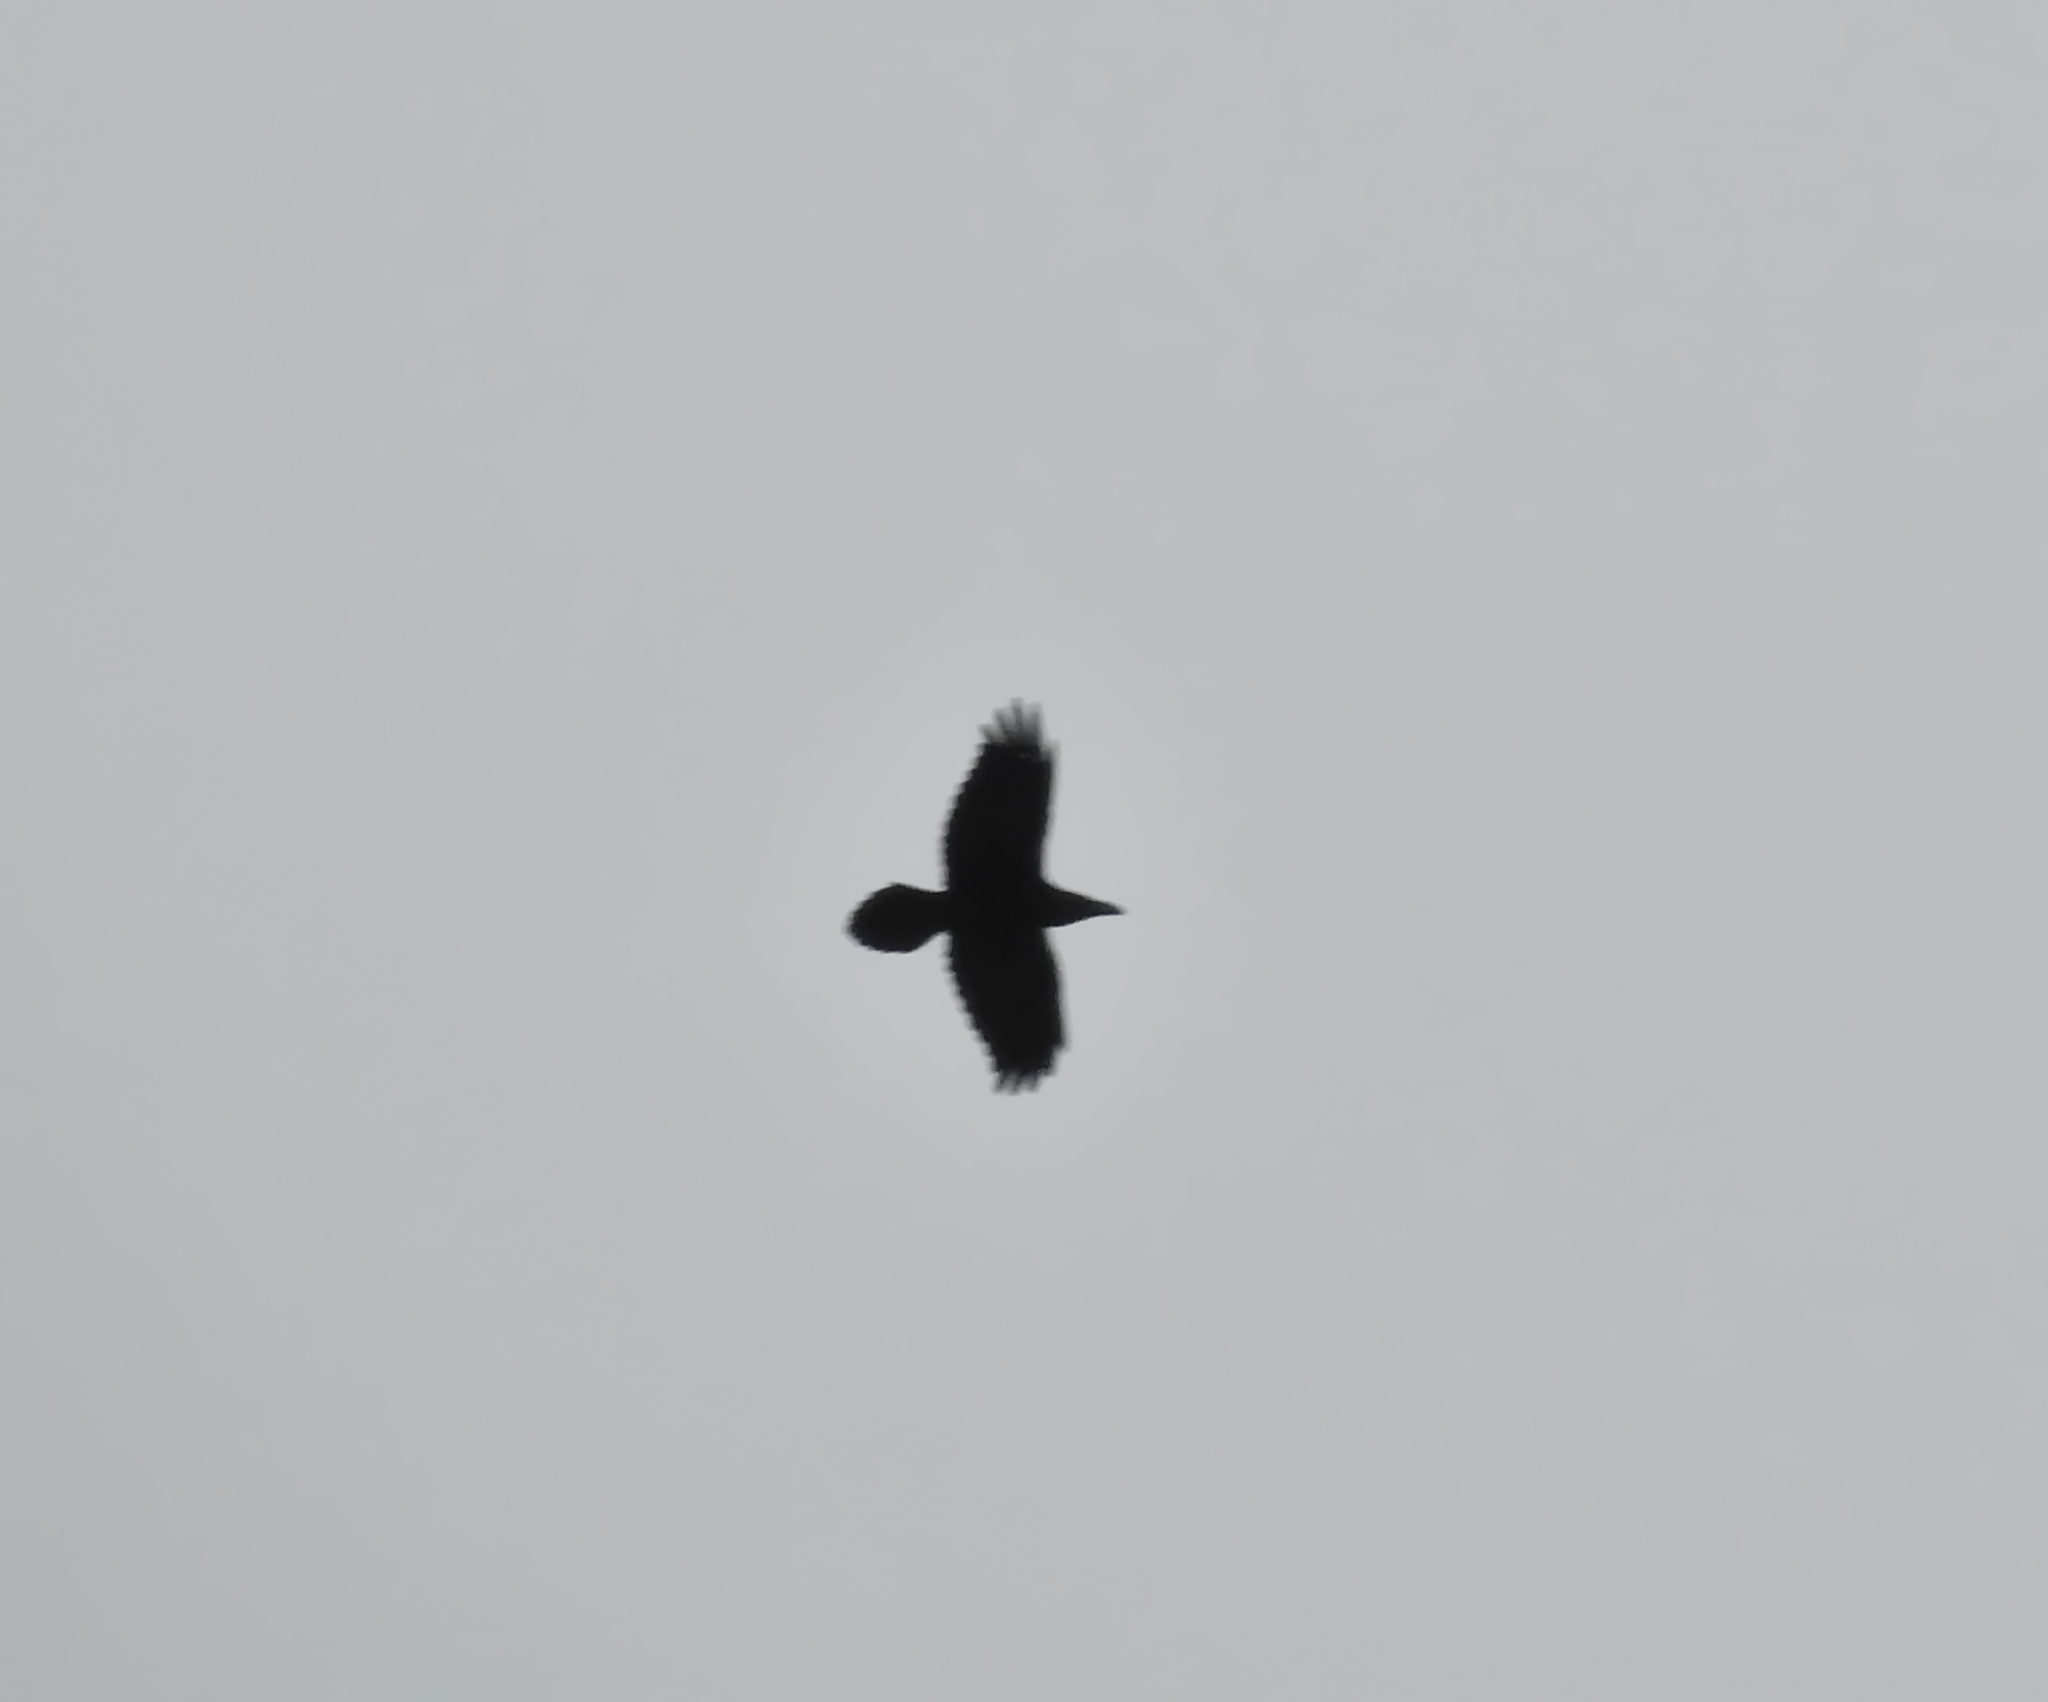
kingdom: Animalia
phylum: Chordata
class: Aves
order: Passeriformes
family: Corvidae
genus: Corvus
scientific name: Corvus corax
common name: Common raven
